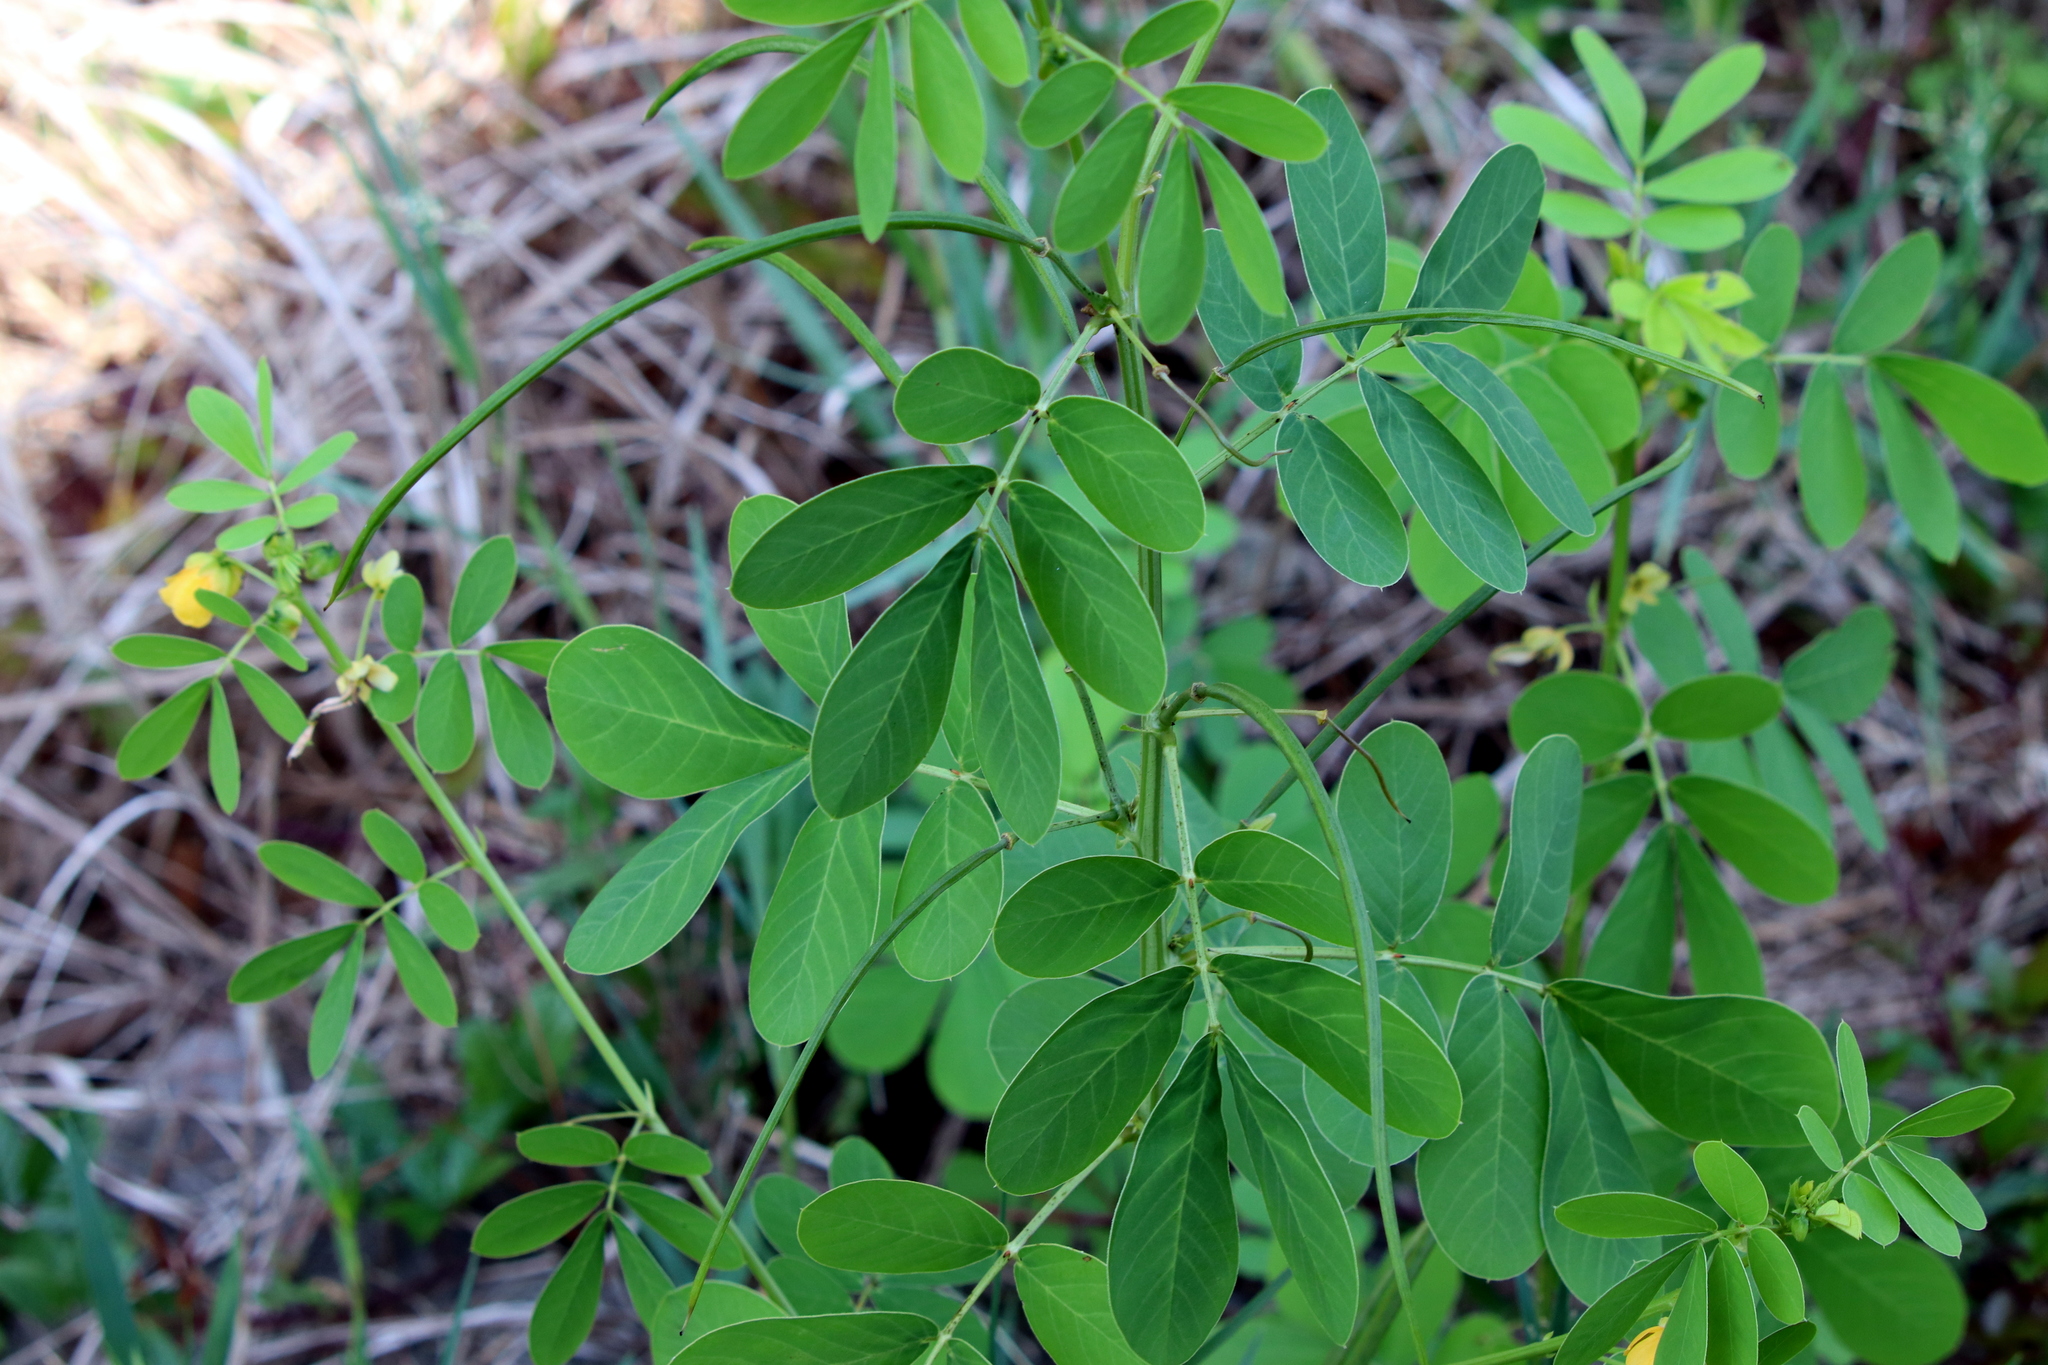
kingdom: Plantae
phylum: Tracheophyta
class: Magnoliopsida
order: Fabales
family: Fabaceae
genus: Senna
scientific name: Senna obtusifolia
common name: Java-bean
